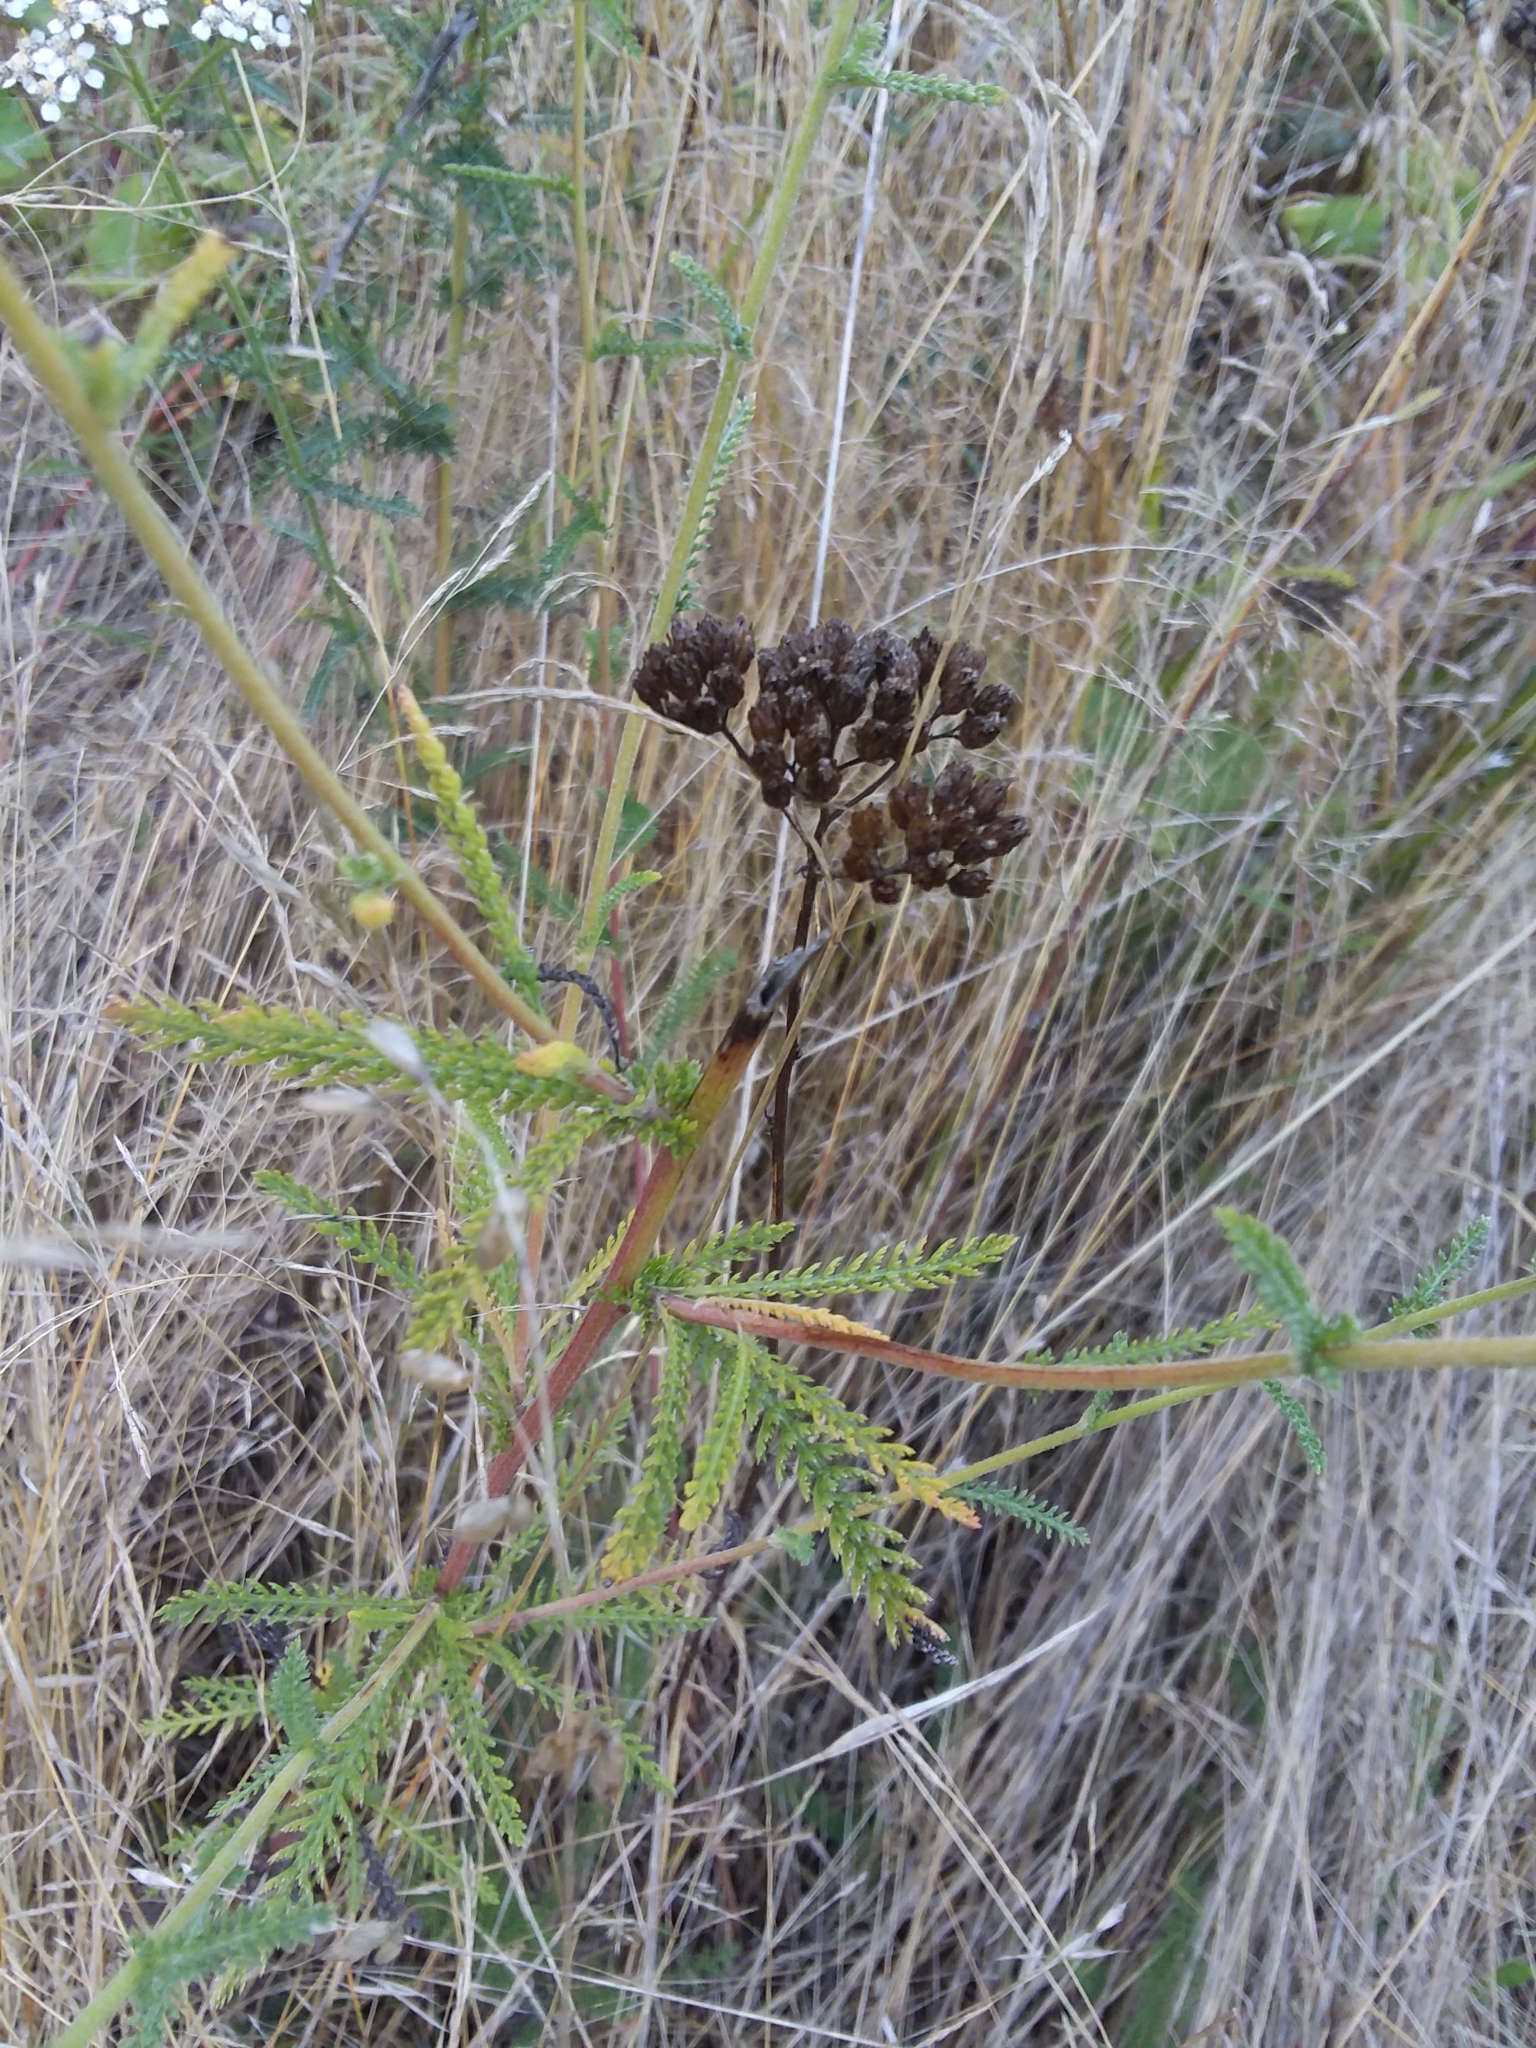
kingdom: Plantae
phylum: Tracheophyta
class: Magnoliopsida
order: Asterales
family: Asteraceae
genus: Achillea
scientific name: Achillea millefolium
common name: Yarrow
